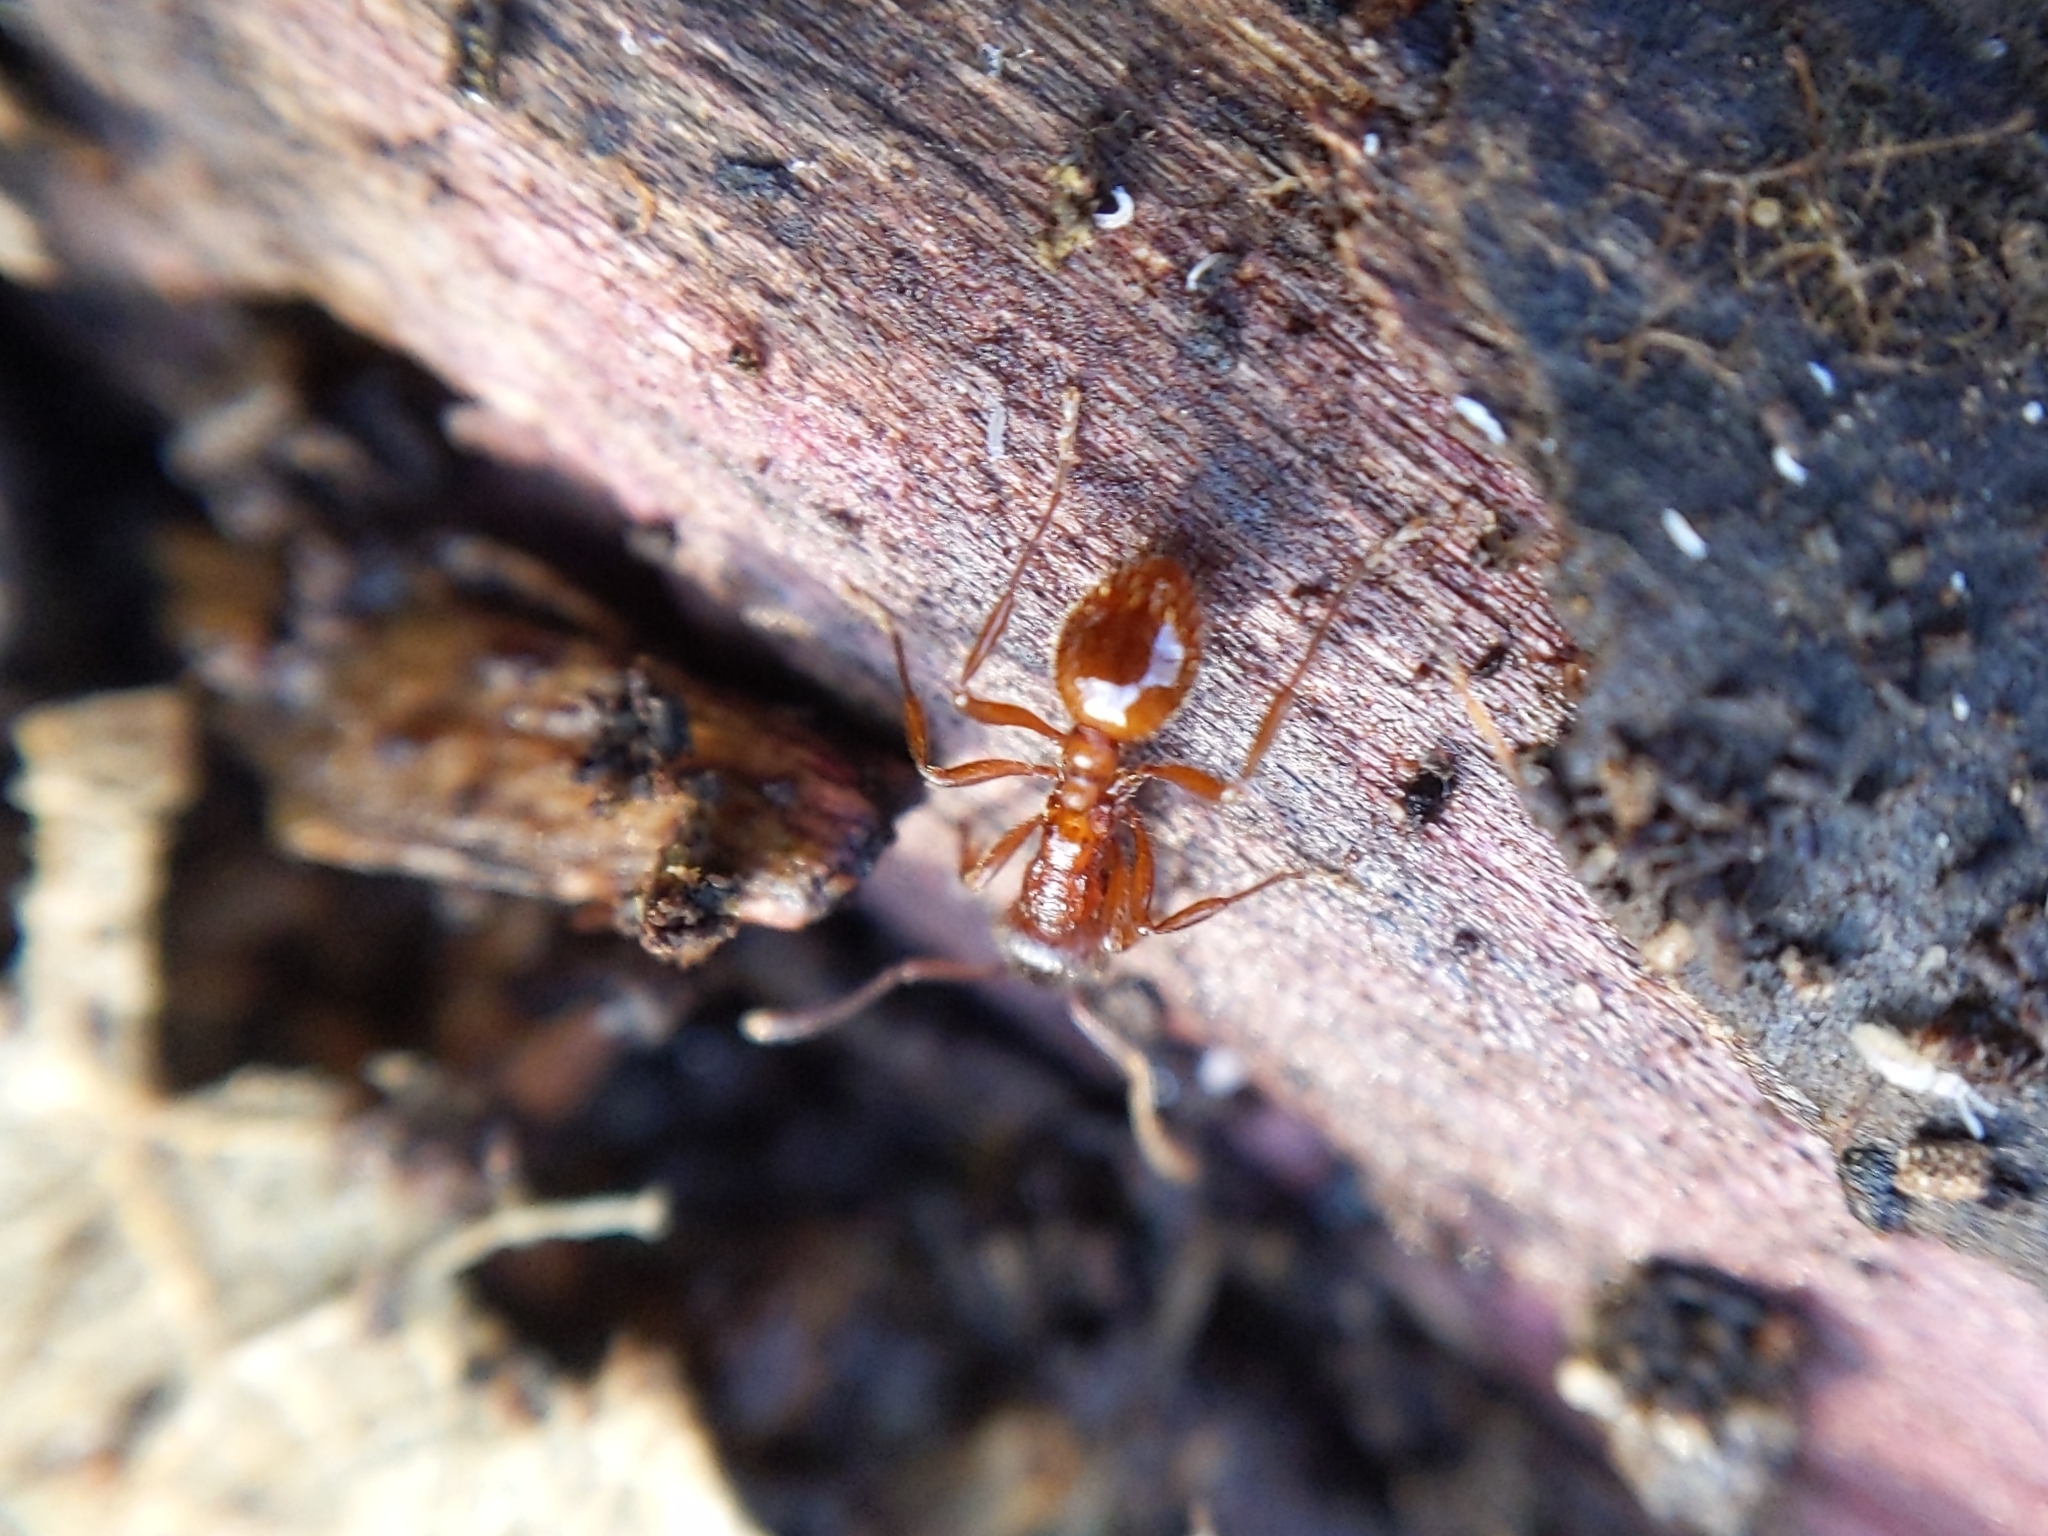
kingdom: Animalia
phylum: Arthropoda
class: Insecta
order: Hymenoptera
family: Formicidae
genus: Myrmica
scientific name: Myrmica rubra
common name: European fire ant
